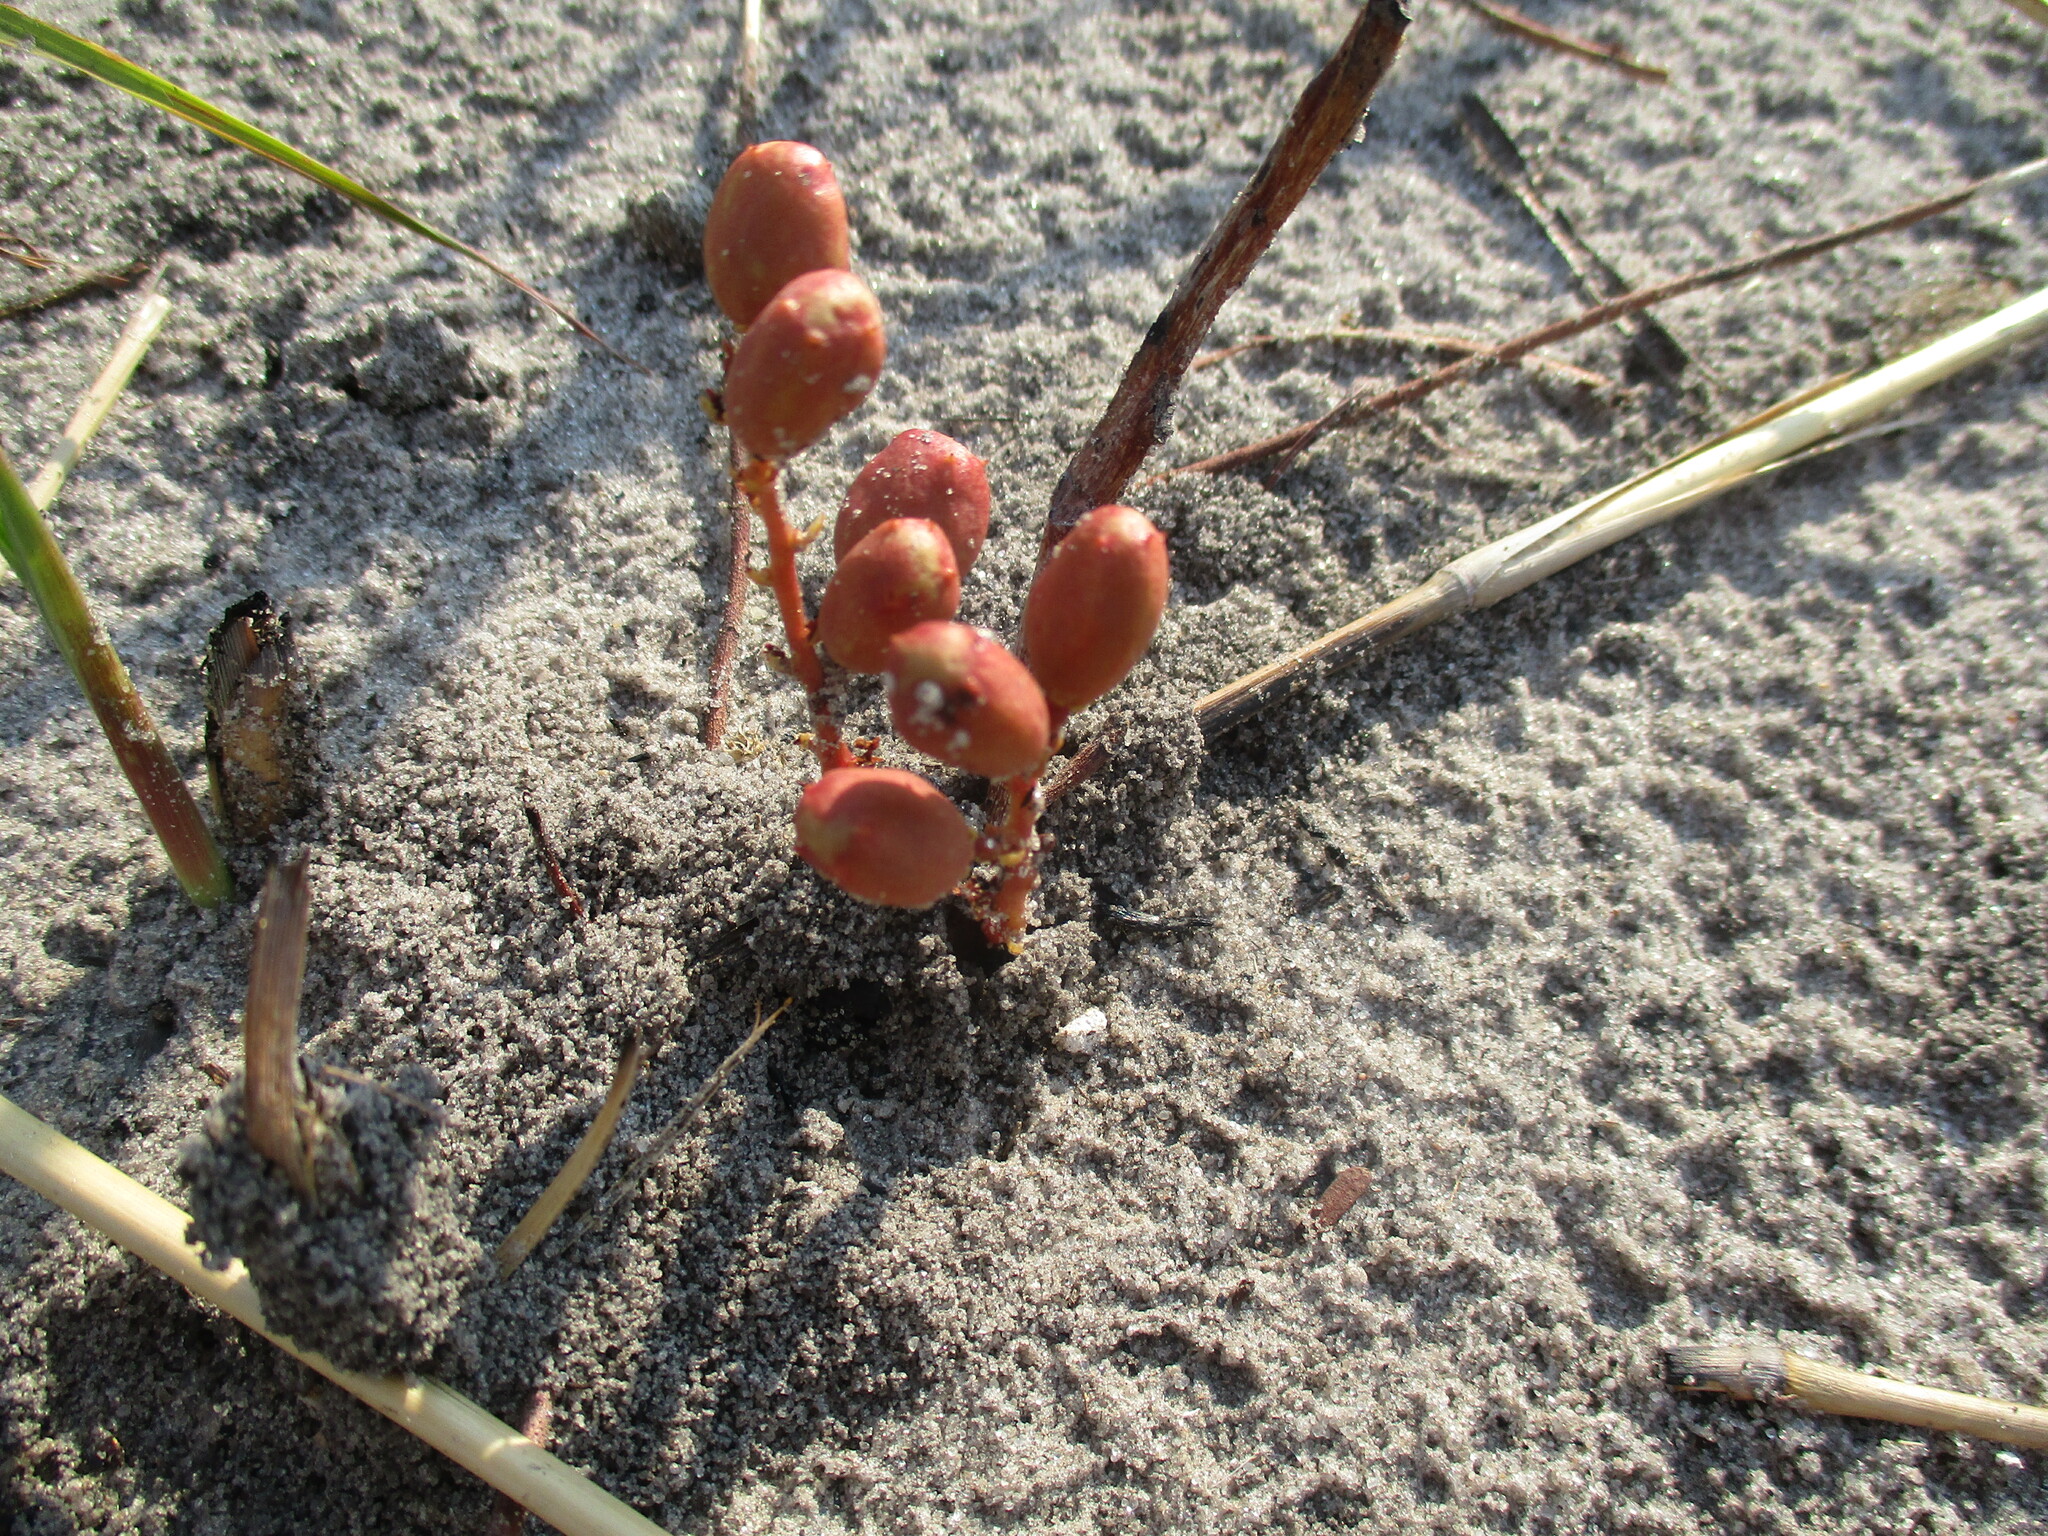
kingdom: Plantae
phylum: Tracheophyta
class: Magnoliopsida
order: Sapindales
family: Anacardiaceae
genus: Lannea
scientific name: Lannea edulis
